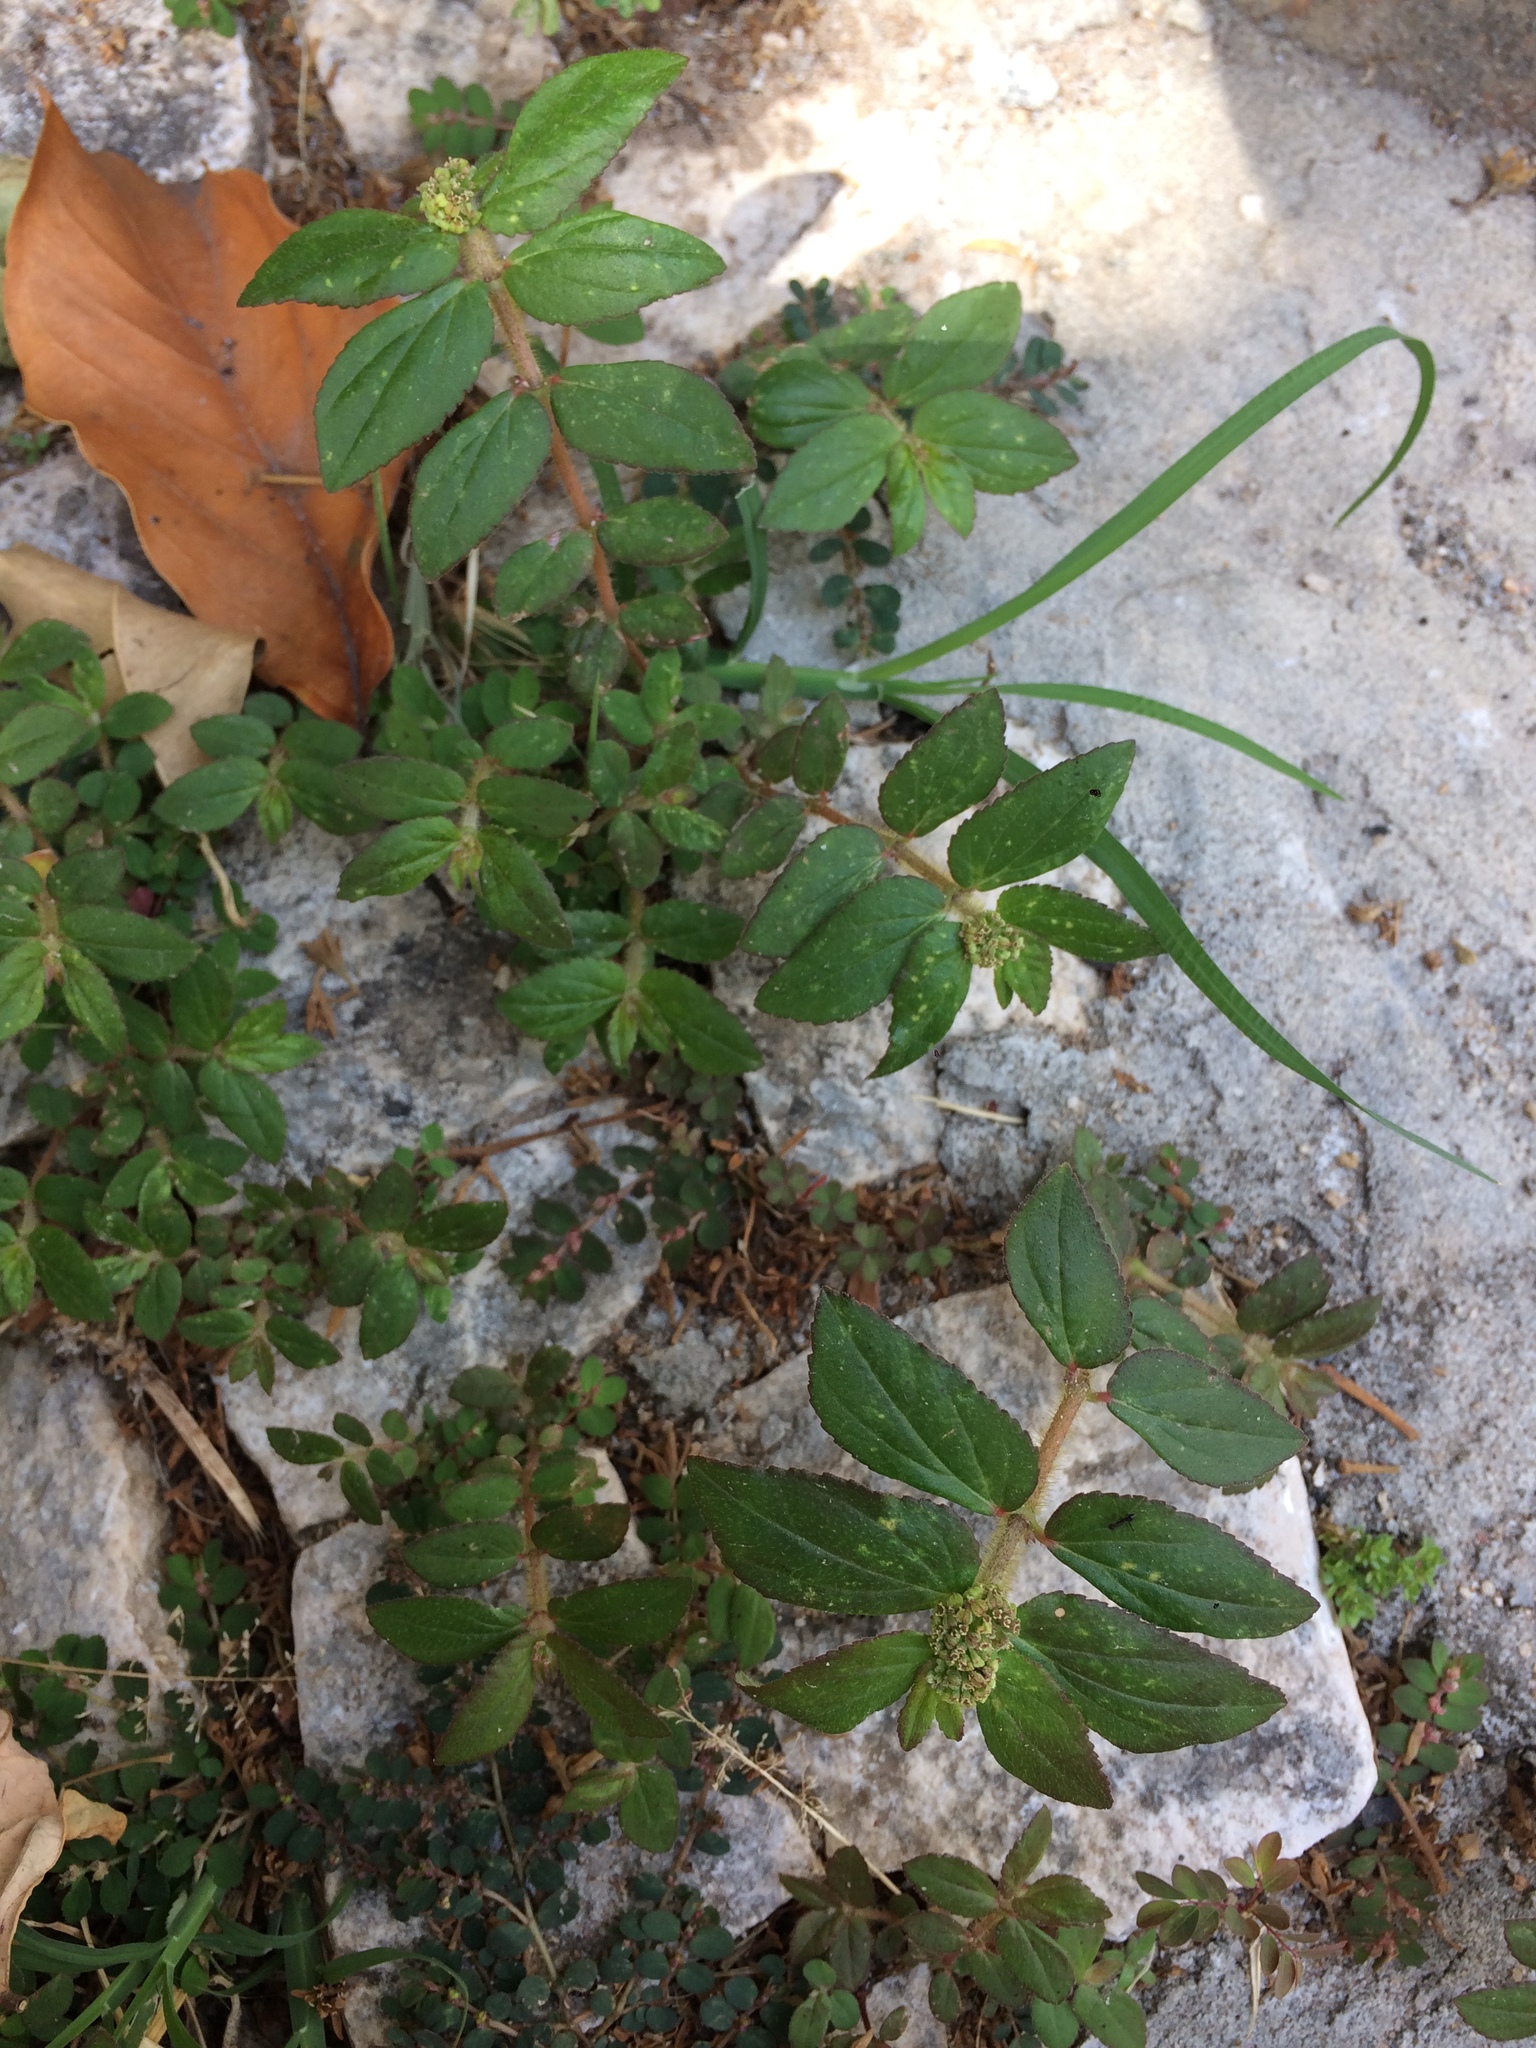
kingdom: Plantae
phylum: Tracheophyta
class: Magnoliopsida
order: Malpighiales
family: Euphorbiaceae
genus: Euphorbia
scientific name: Euphorbia hirta
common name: Pillpod sandmat
